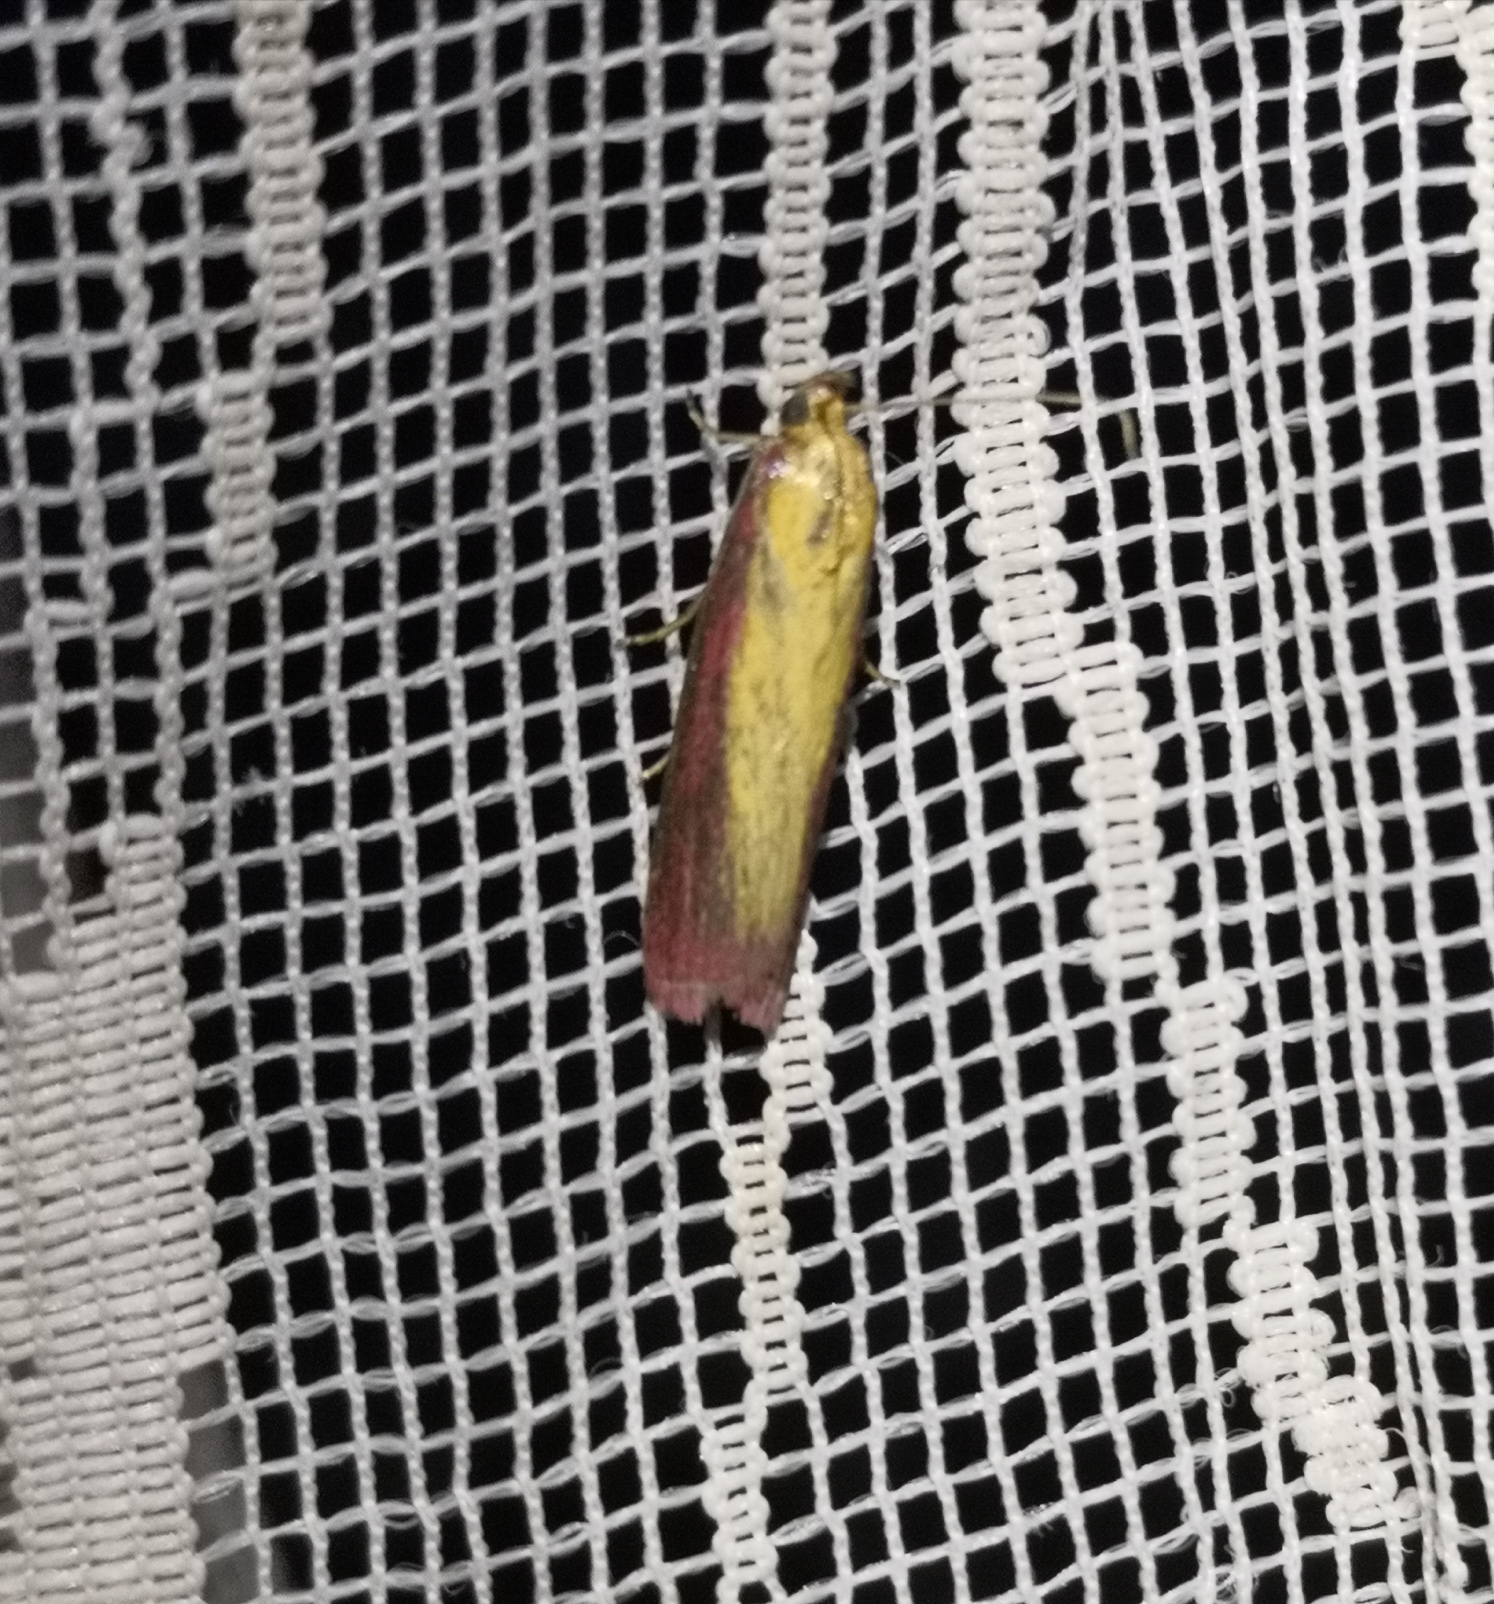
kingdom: Animalia
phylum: Arthropoda
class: Insecta
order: Lepidoptera
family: Pyralidae
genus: Oncocera
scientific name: Oncocera semirubella
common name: Rosy-striped knot-horn
